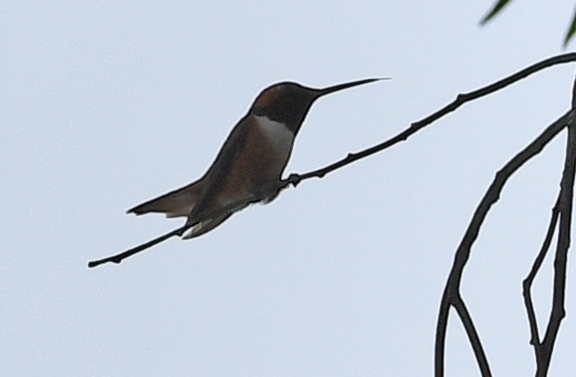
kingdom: Animalia
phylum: Chordata
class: Aves
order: Apodiformes
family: Trochilidae
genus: Selasphorus
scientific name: Selasphorus sasin
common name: Allen's hummingbird
